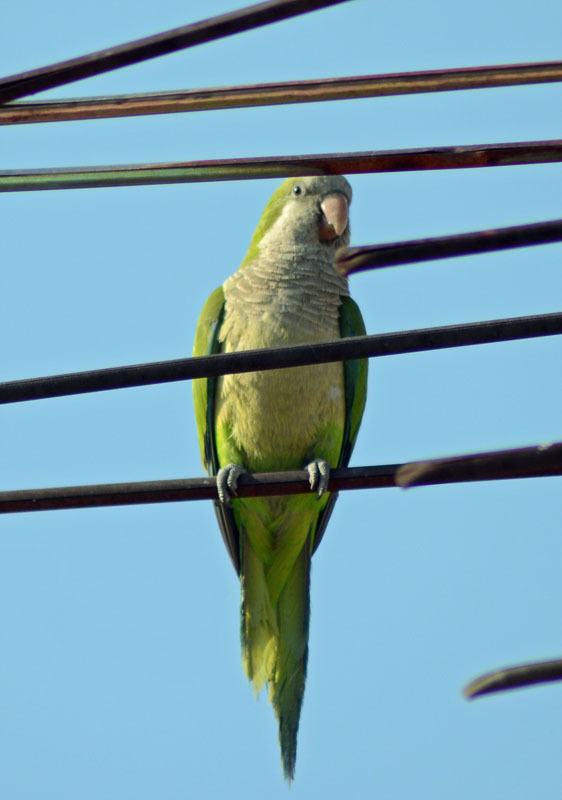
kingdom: Animalia
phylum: Chordata
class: Aves
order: Psittaciformes
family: Psittacidae
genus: Myiopsitta
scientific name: Myiopsitta monachus
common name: Monk parakeet
